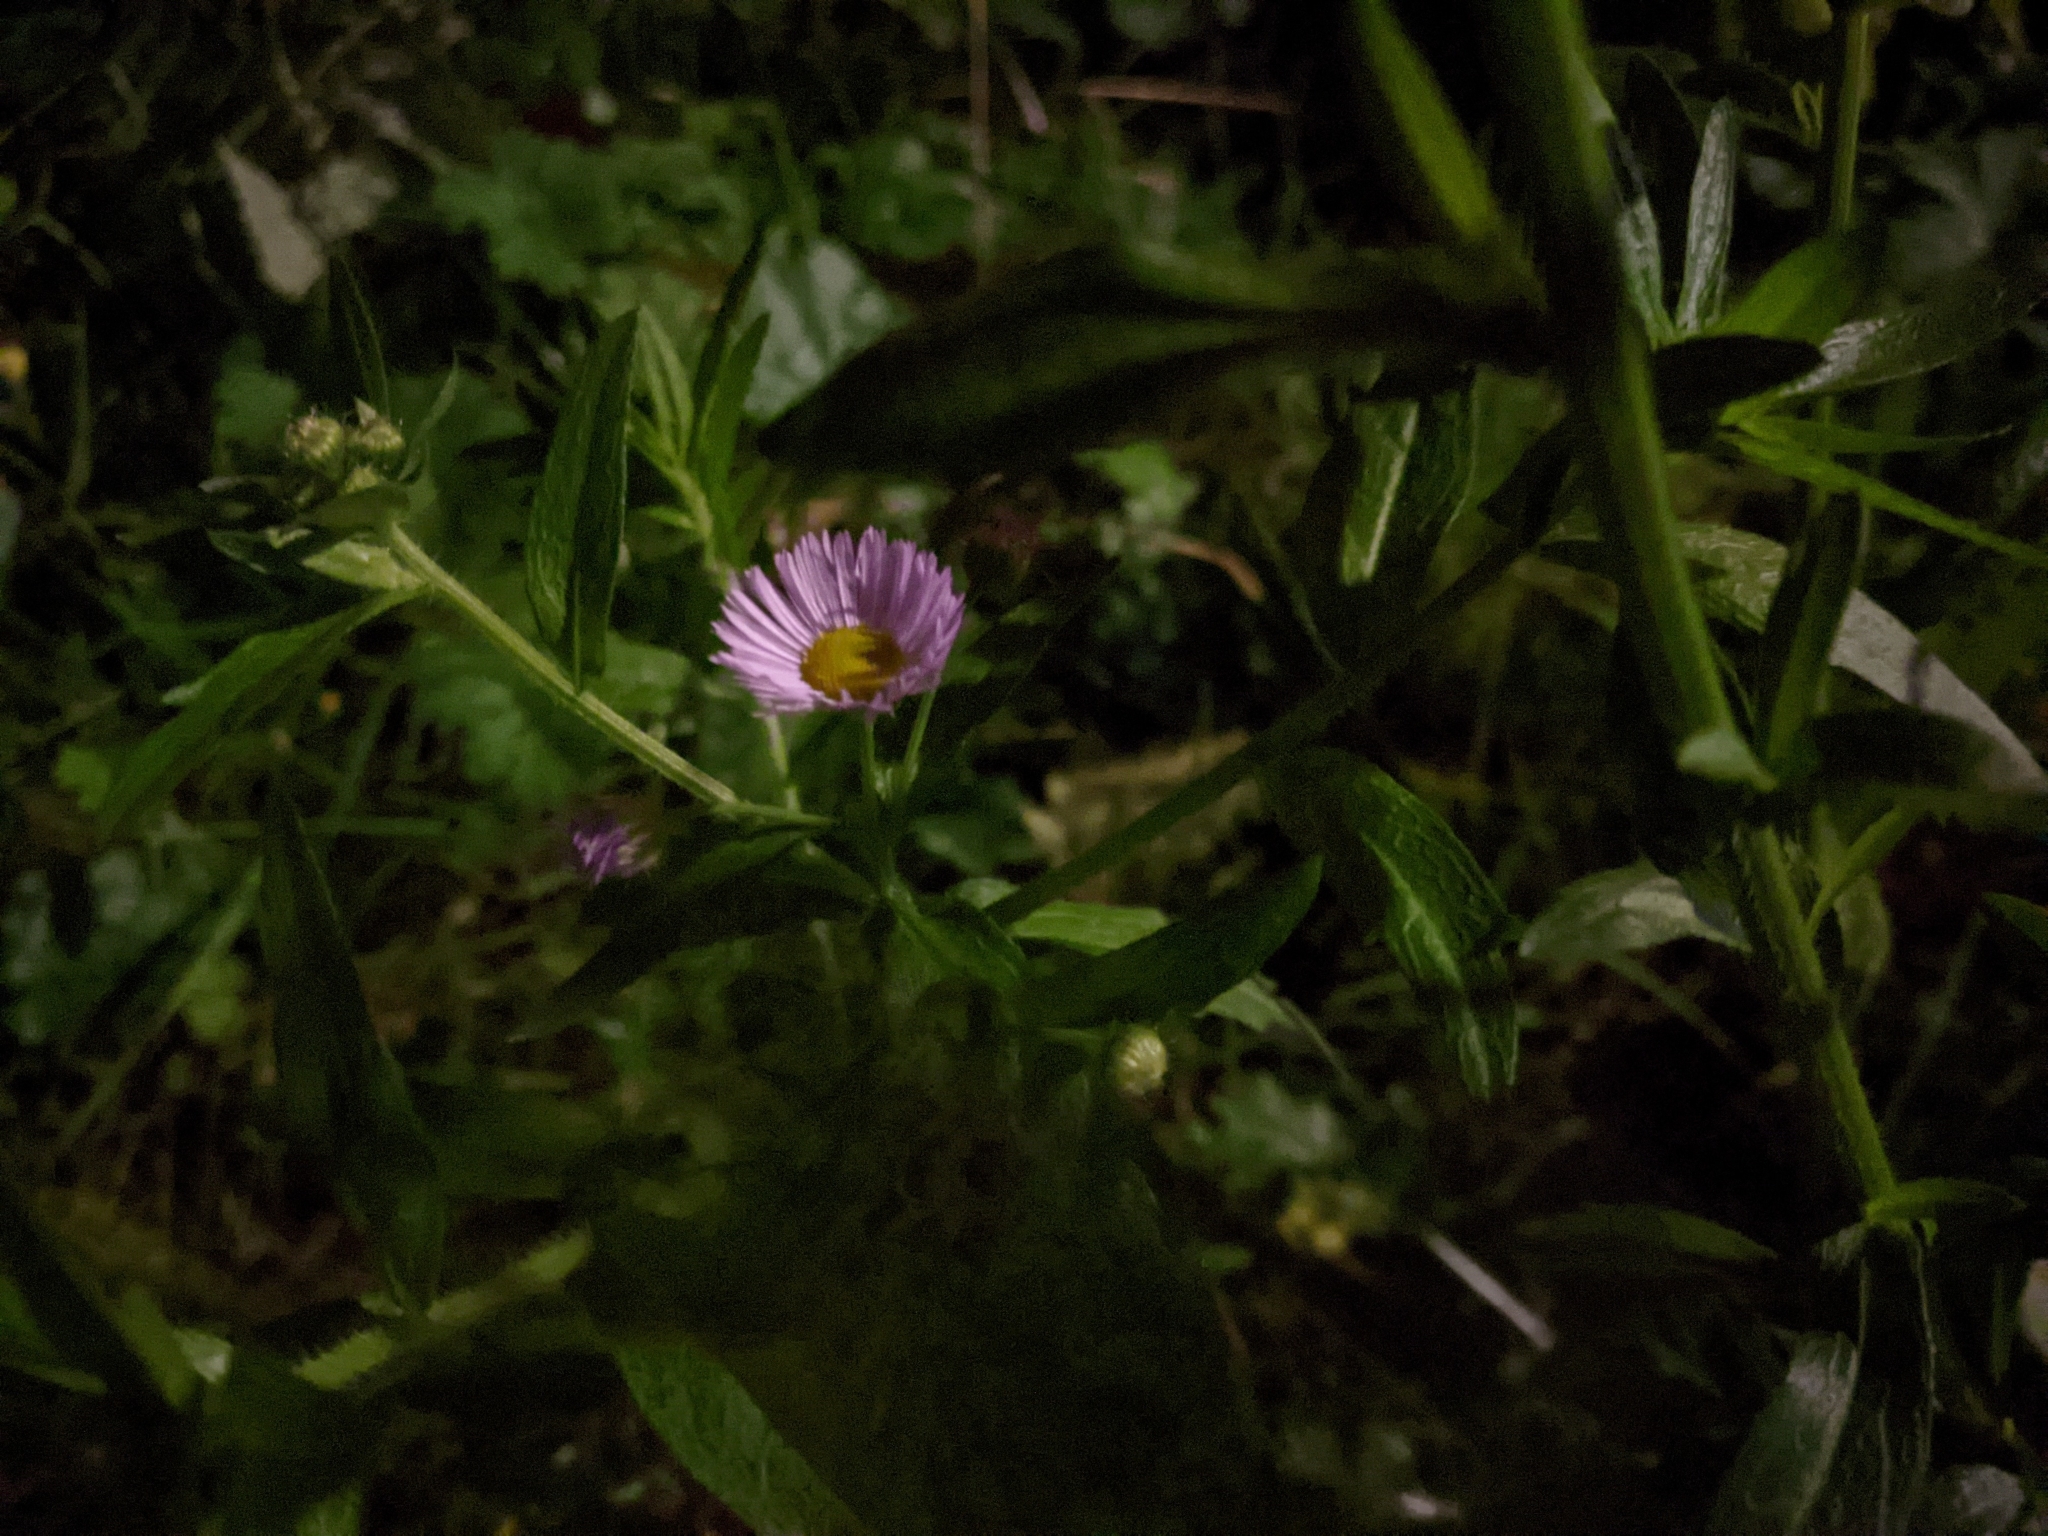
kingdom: Plantae
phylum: Tracheophyta
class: Magnoliopsida
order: Asterales
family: Asteraceae
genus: Erigeron
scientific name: Erigeron annuus
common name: Tall fleabane
